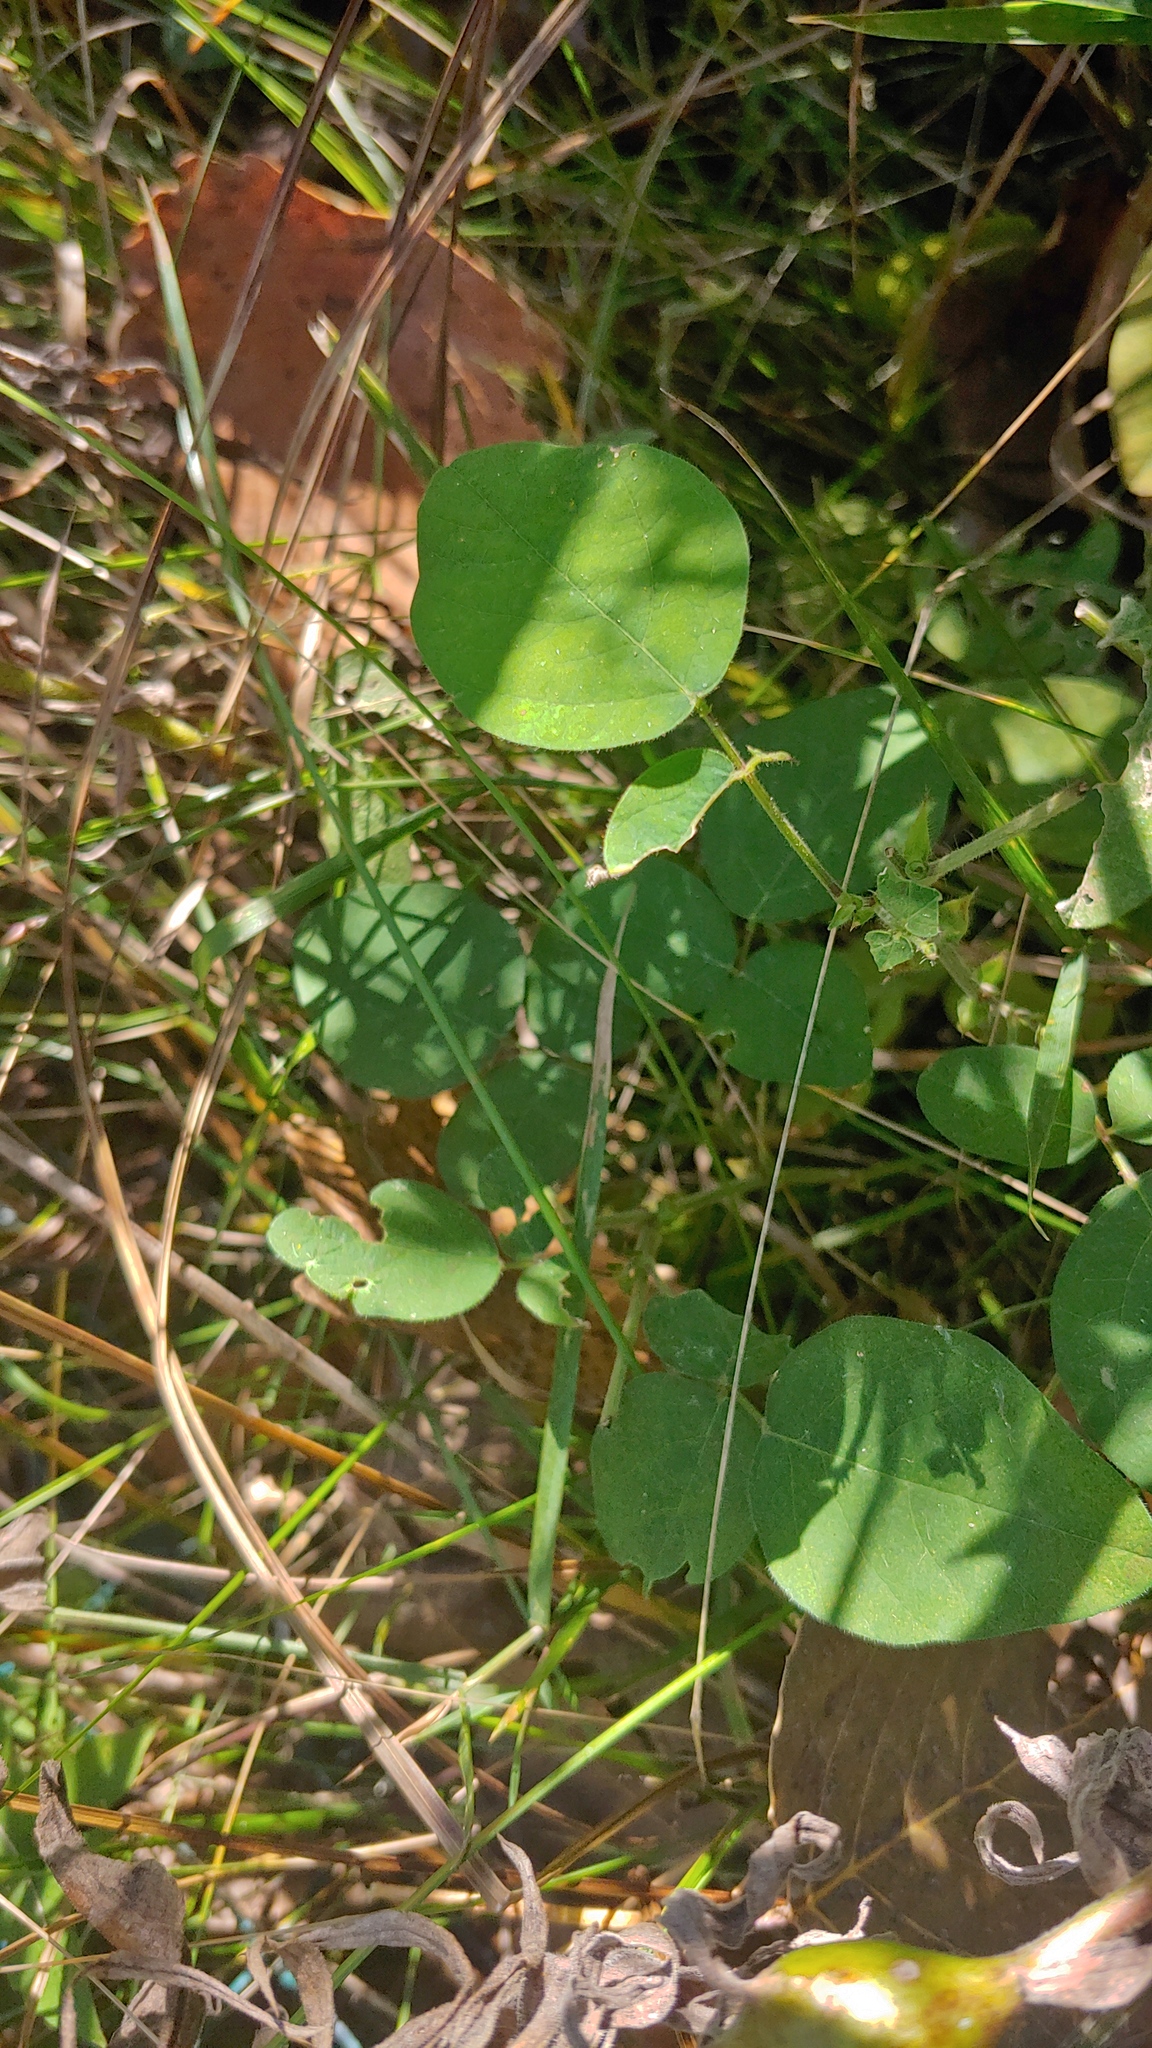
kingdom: Plantae
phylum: Tracheophyta
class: Magnoliopsida
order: Fabales
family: Fabaceae
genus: Desmodium
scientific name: Desmodium canescens
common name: Hoary tick-clover
